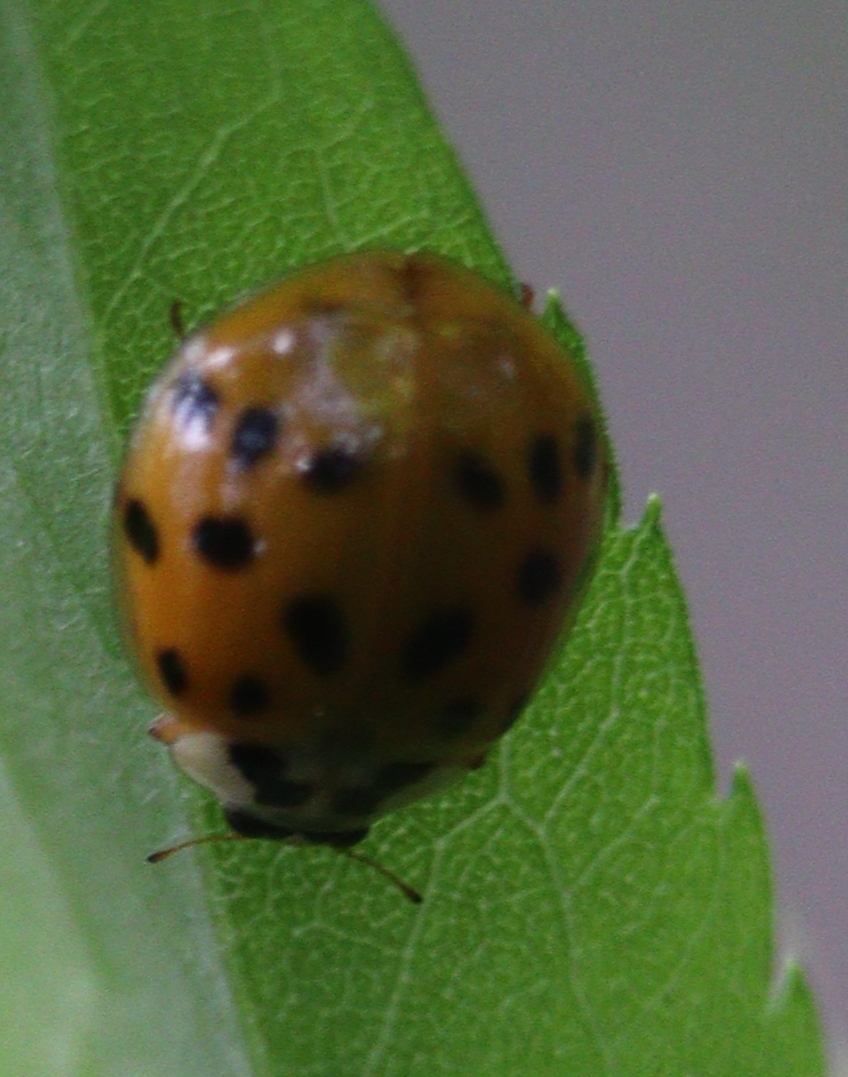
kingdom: Animalia
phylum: Arthropoda
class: Insecta
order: Coleoptera
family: Coccinellidae
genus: Harmonia
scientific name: Harmonia axyridis
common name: Harlequin ladybird
